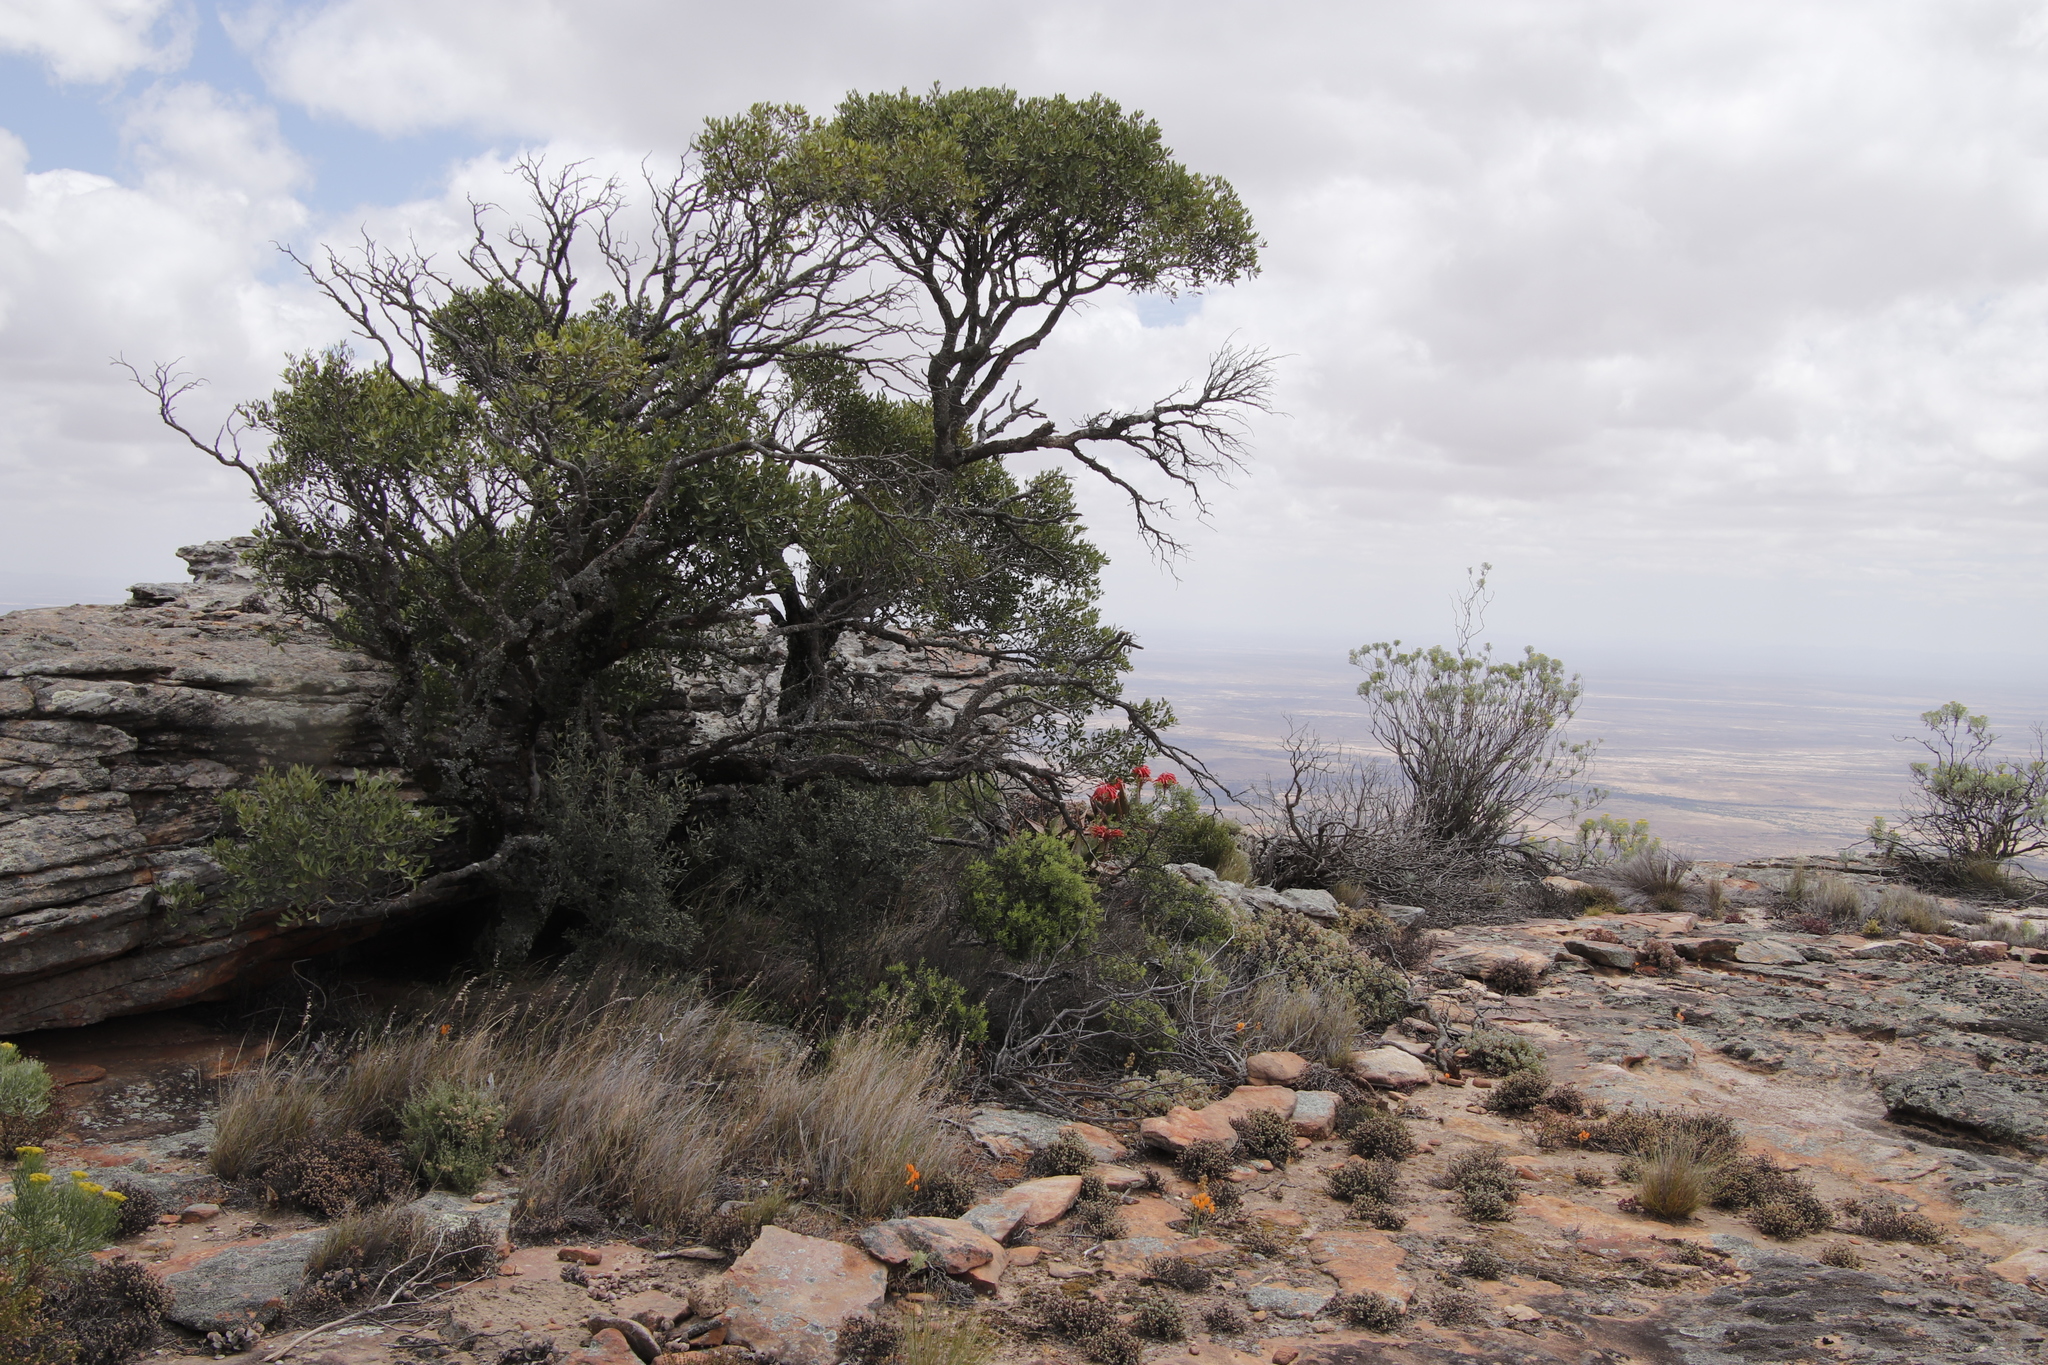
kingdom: Plantae
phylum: Tracheophyta
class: Liliopsida
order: Asparagales
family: Asphodelaceae
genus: Aloe
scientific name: Aloe perfoliata
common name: Mitra aloe
